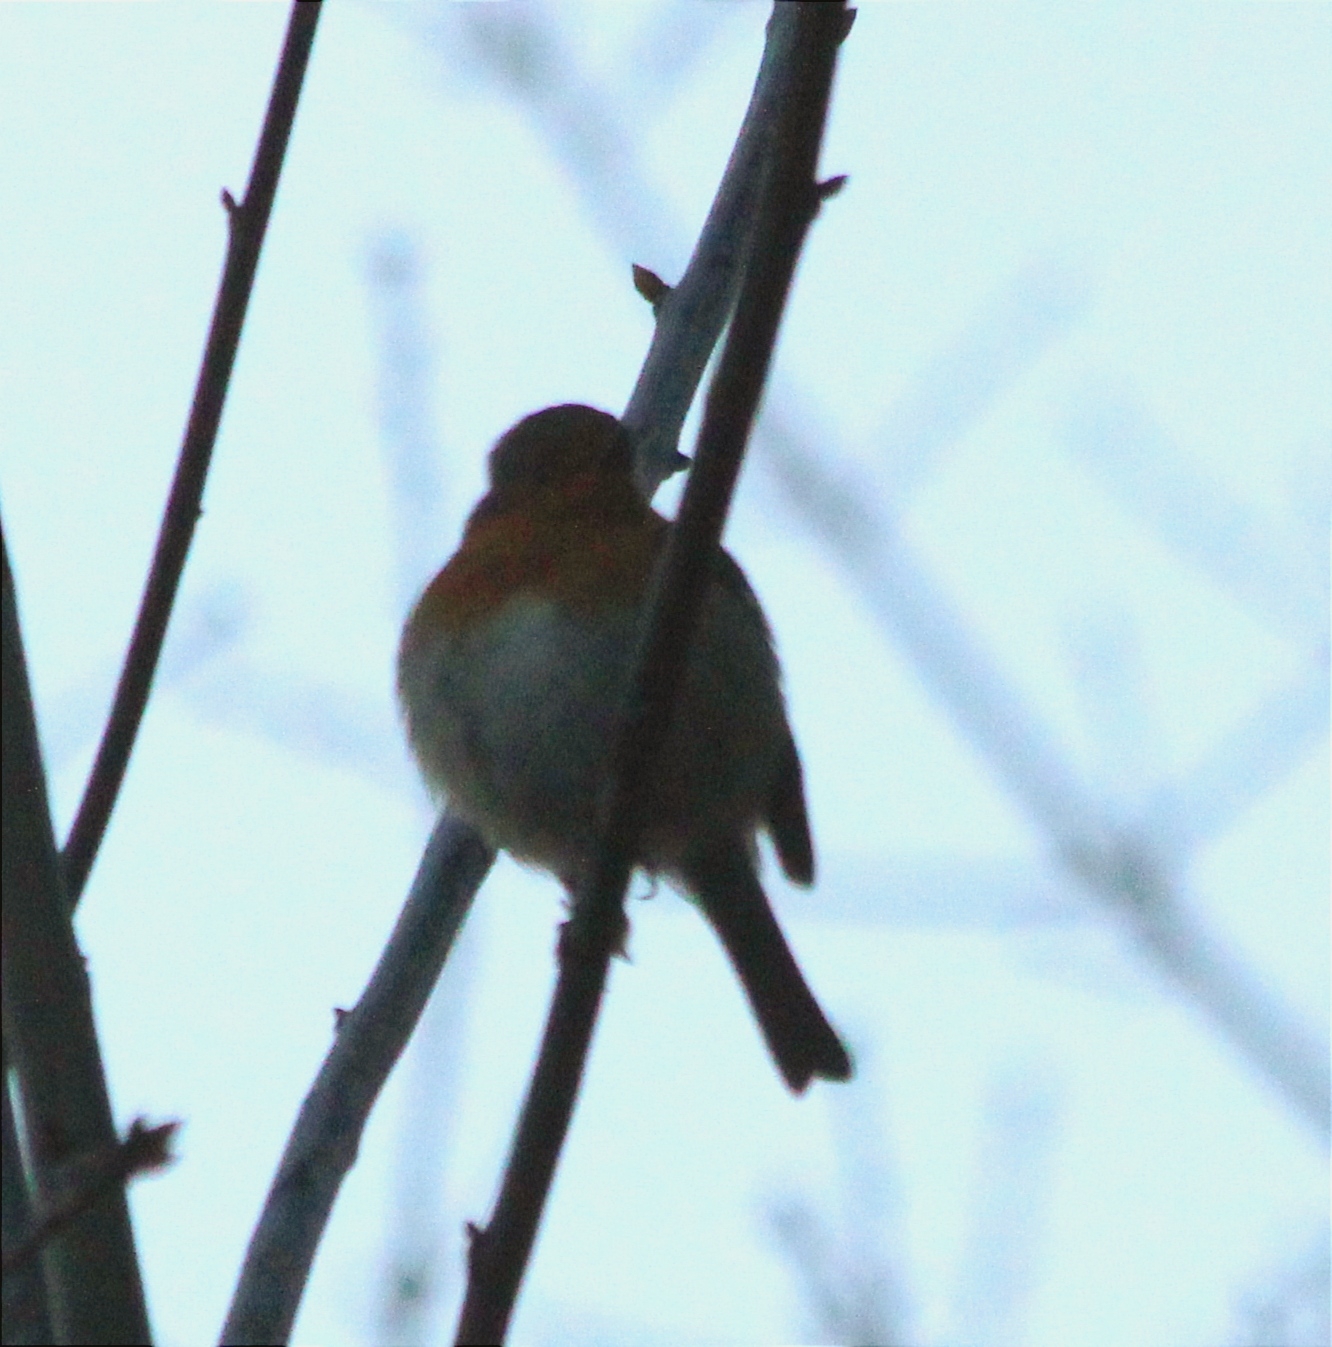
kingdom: Animalia
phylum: Chordata
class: Aves
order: Passeriformes
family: Muscicapidae
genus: Erithacus
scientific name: Erithacus rubecula
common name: European robin
